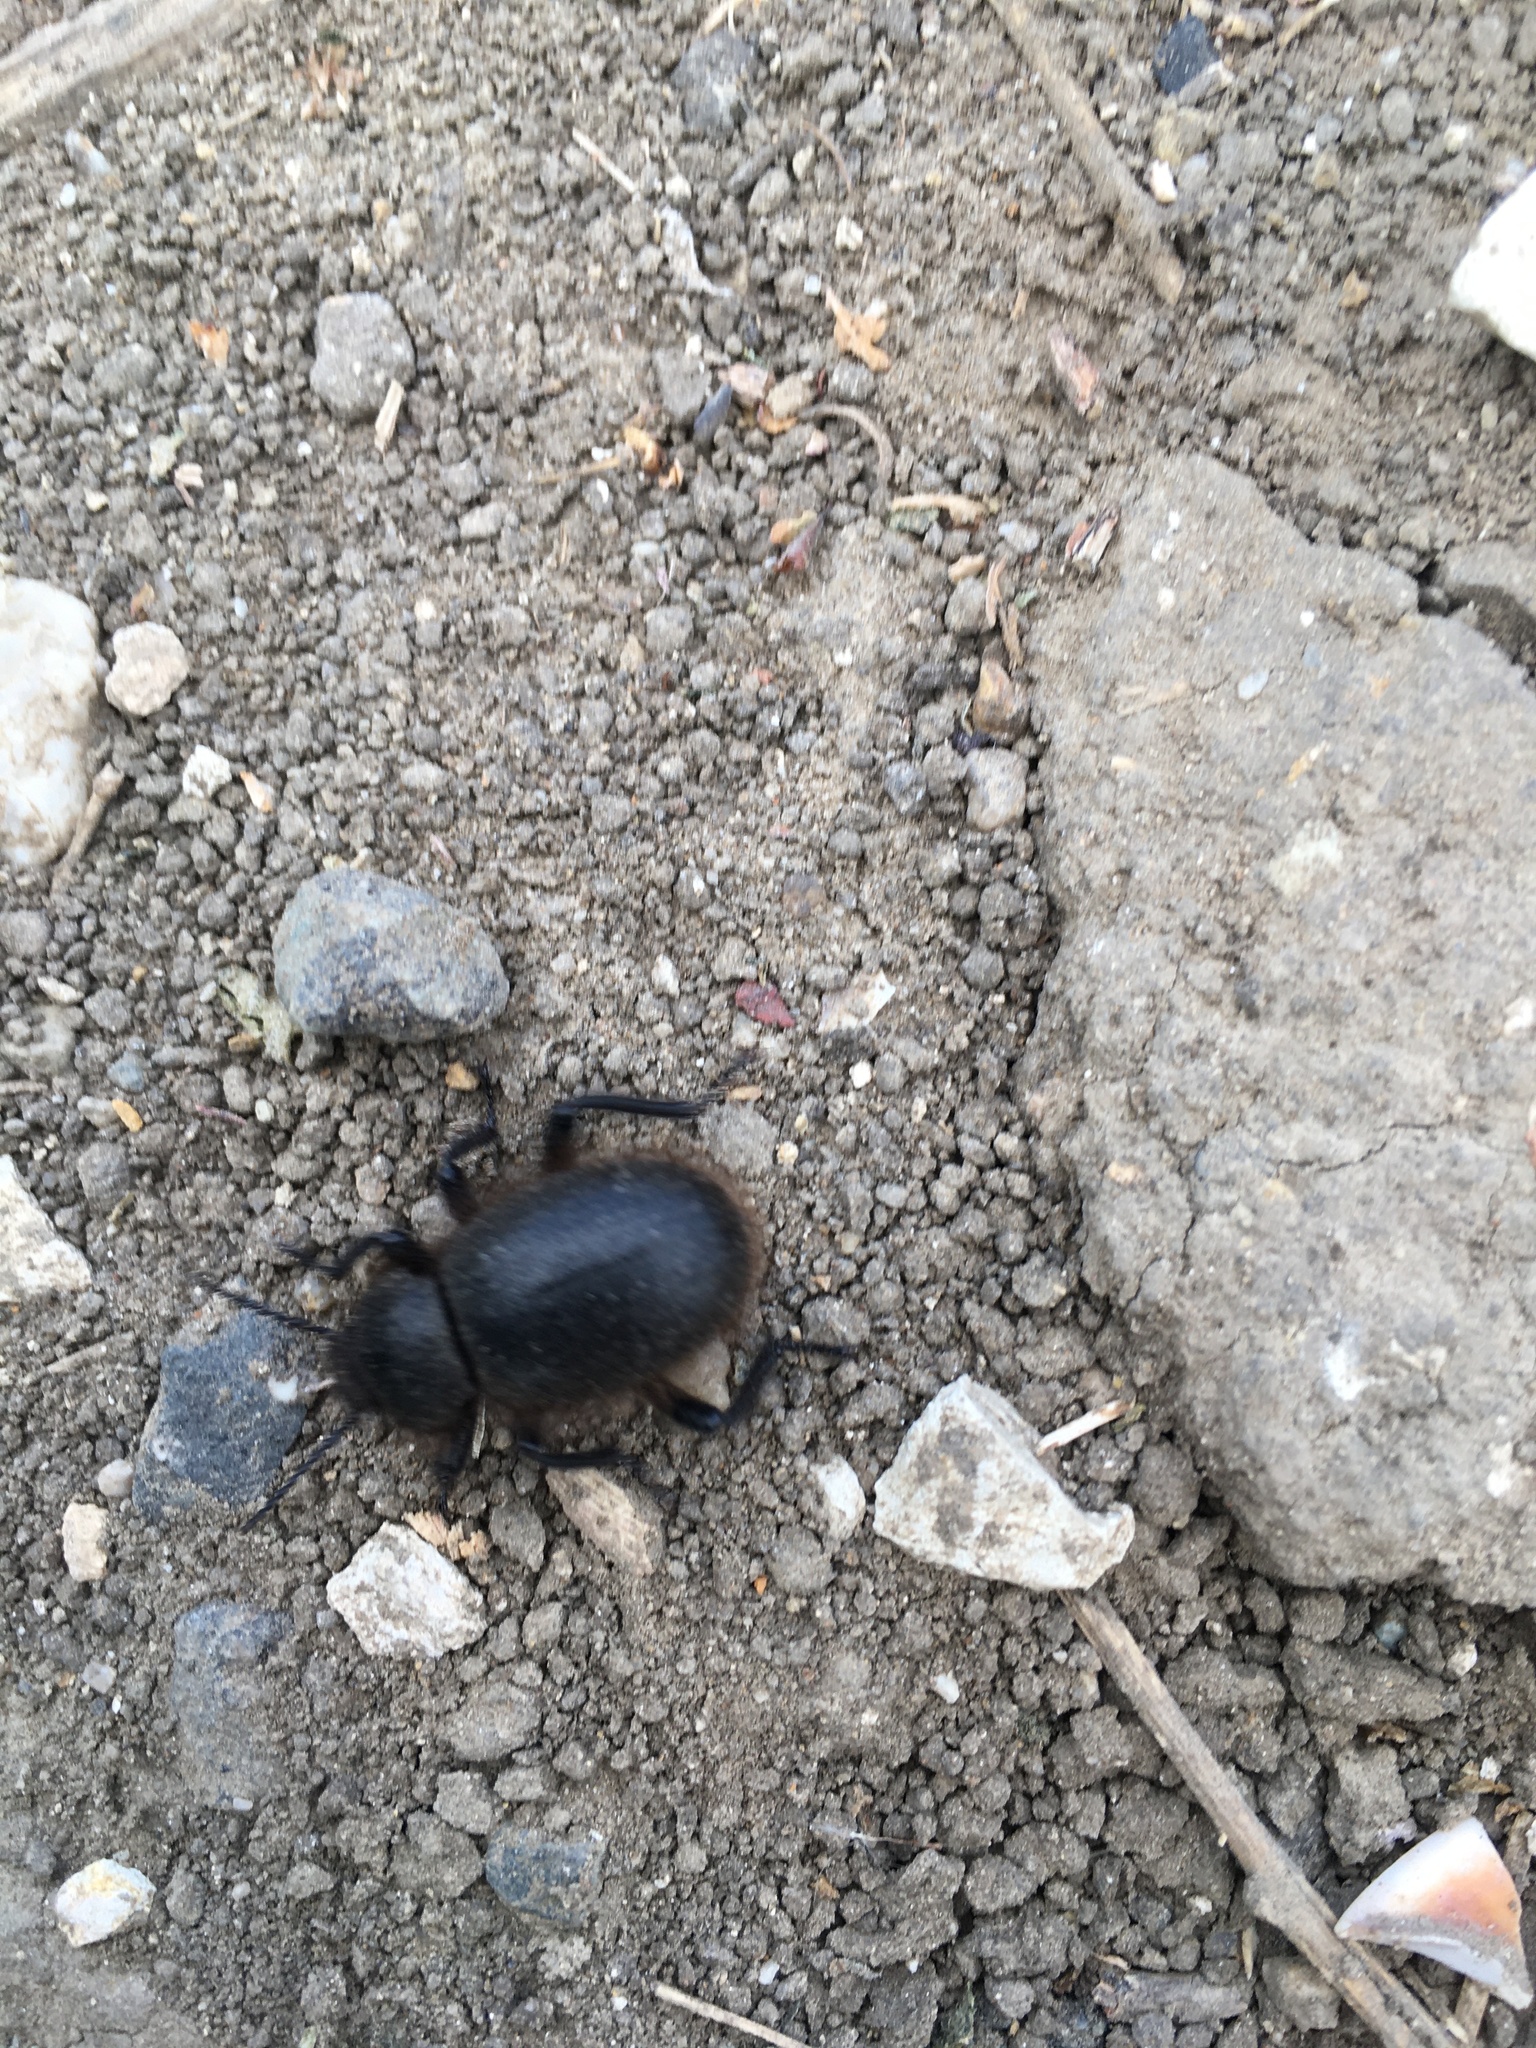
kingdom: Animalia
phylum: Arthropoda
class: Insecta
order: Coleoptera
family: Tenebrionidae
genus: Eleodes
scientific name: Eleodes osculans
